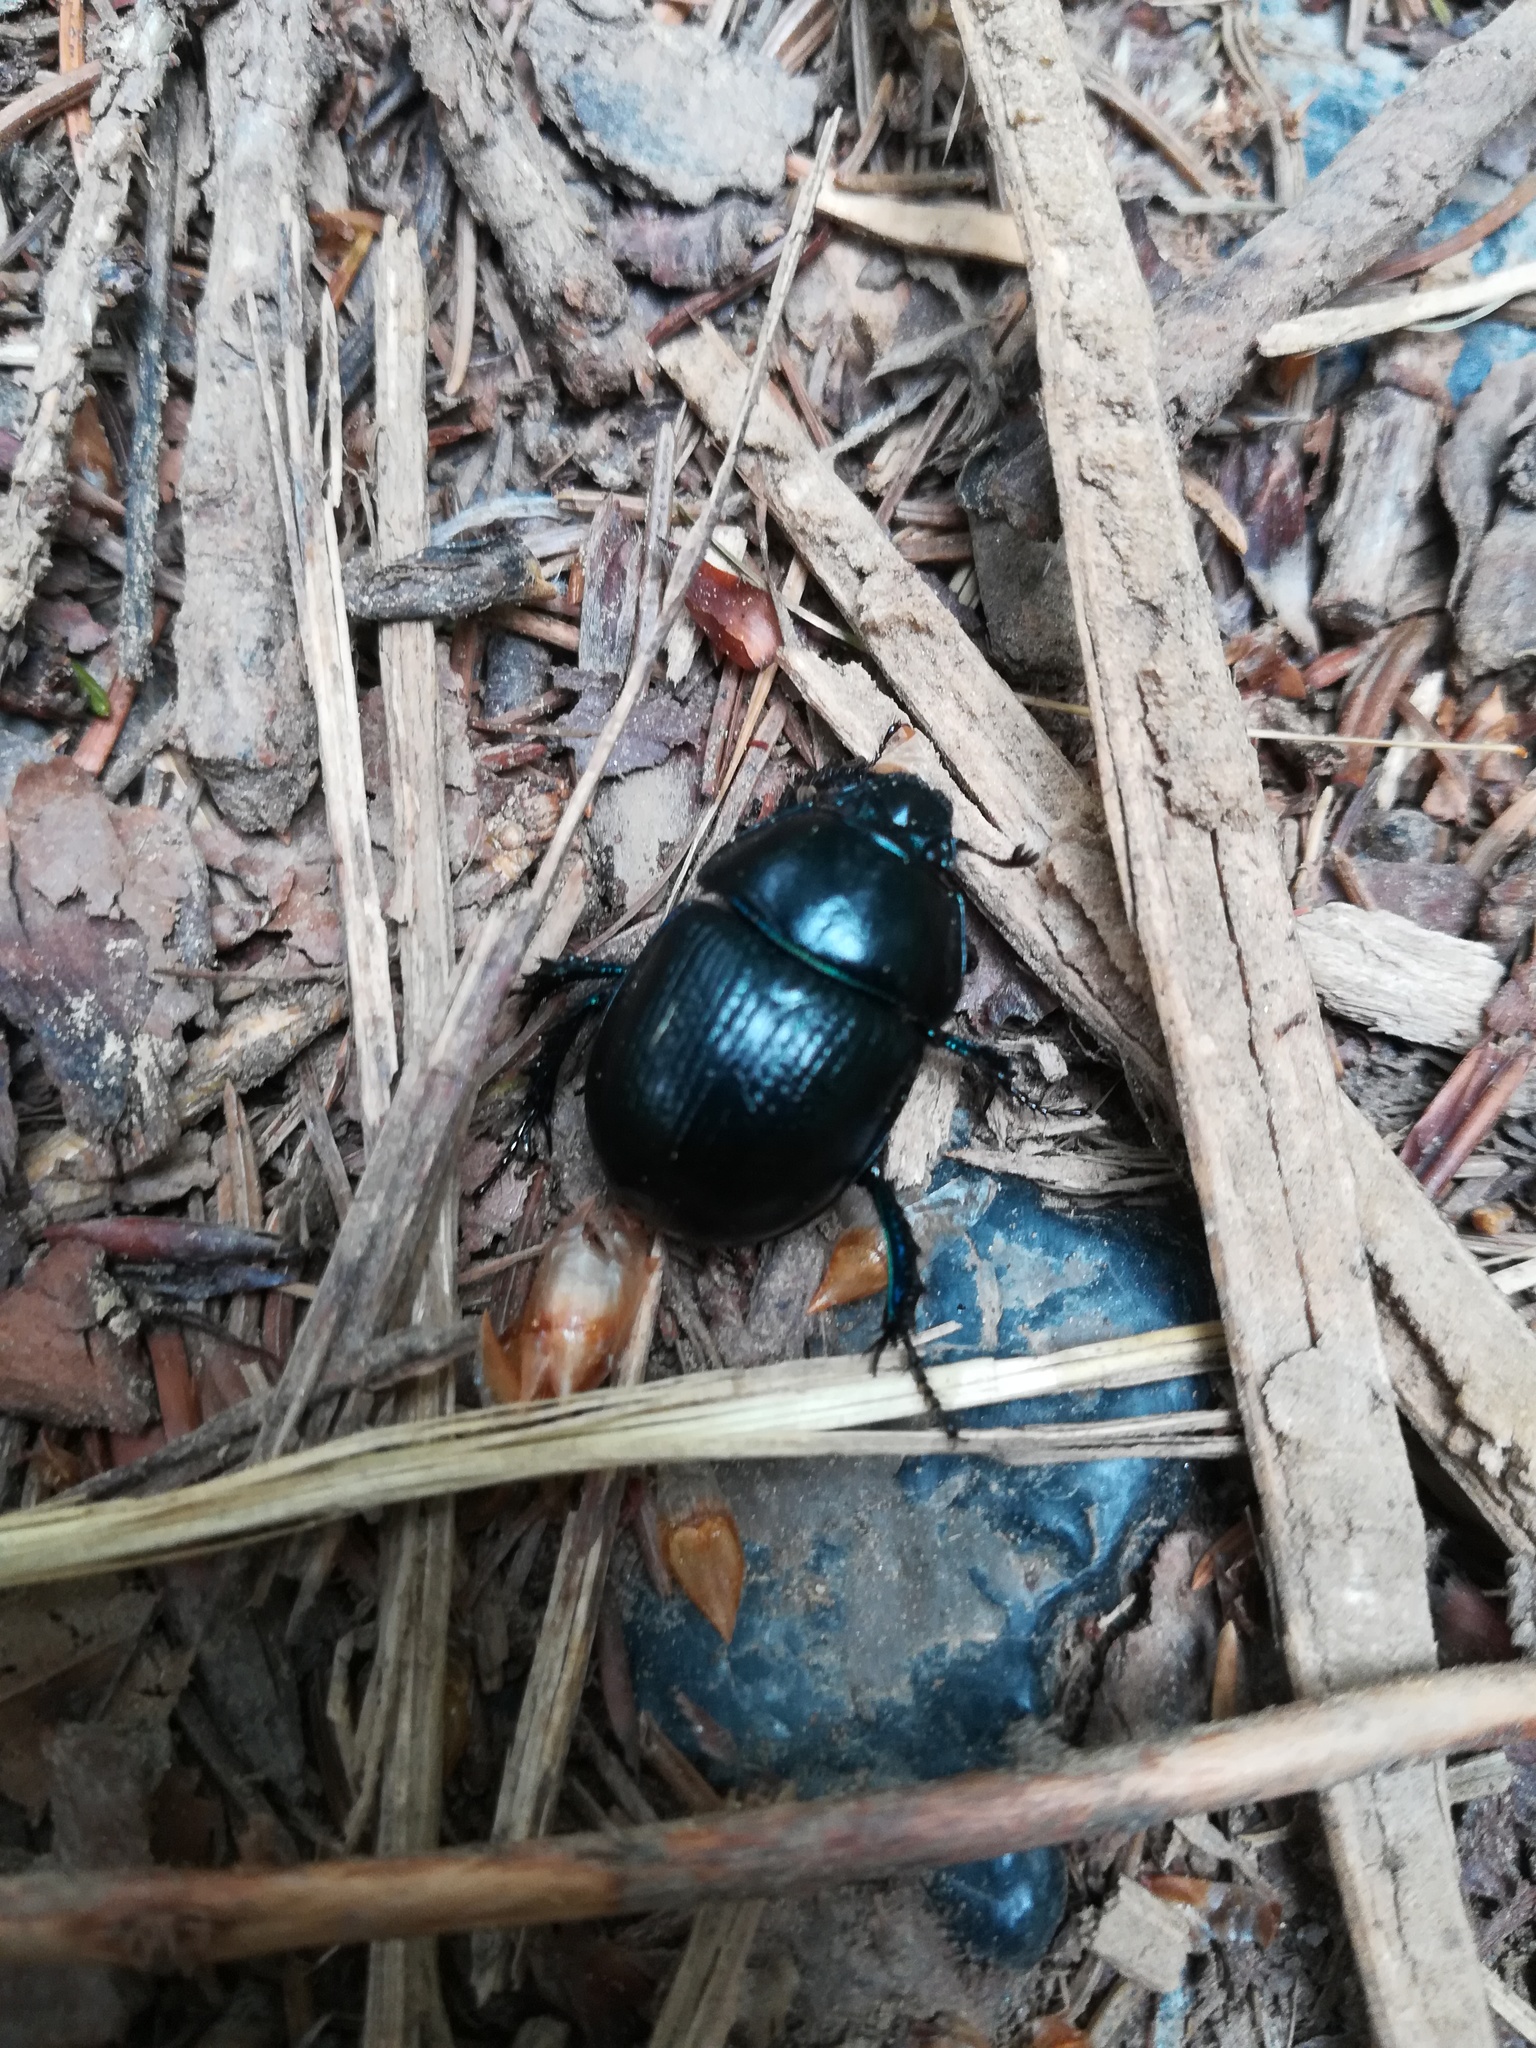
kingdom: Animalia
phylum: Arthropoda
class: Insecta
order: Coleoptera
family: Geotrupidae
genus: Anoplotrupes
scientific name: Anoplotrupes stercorosus
